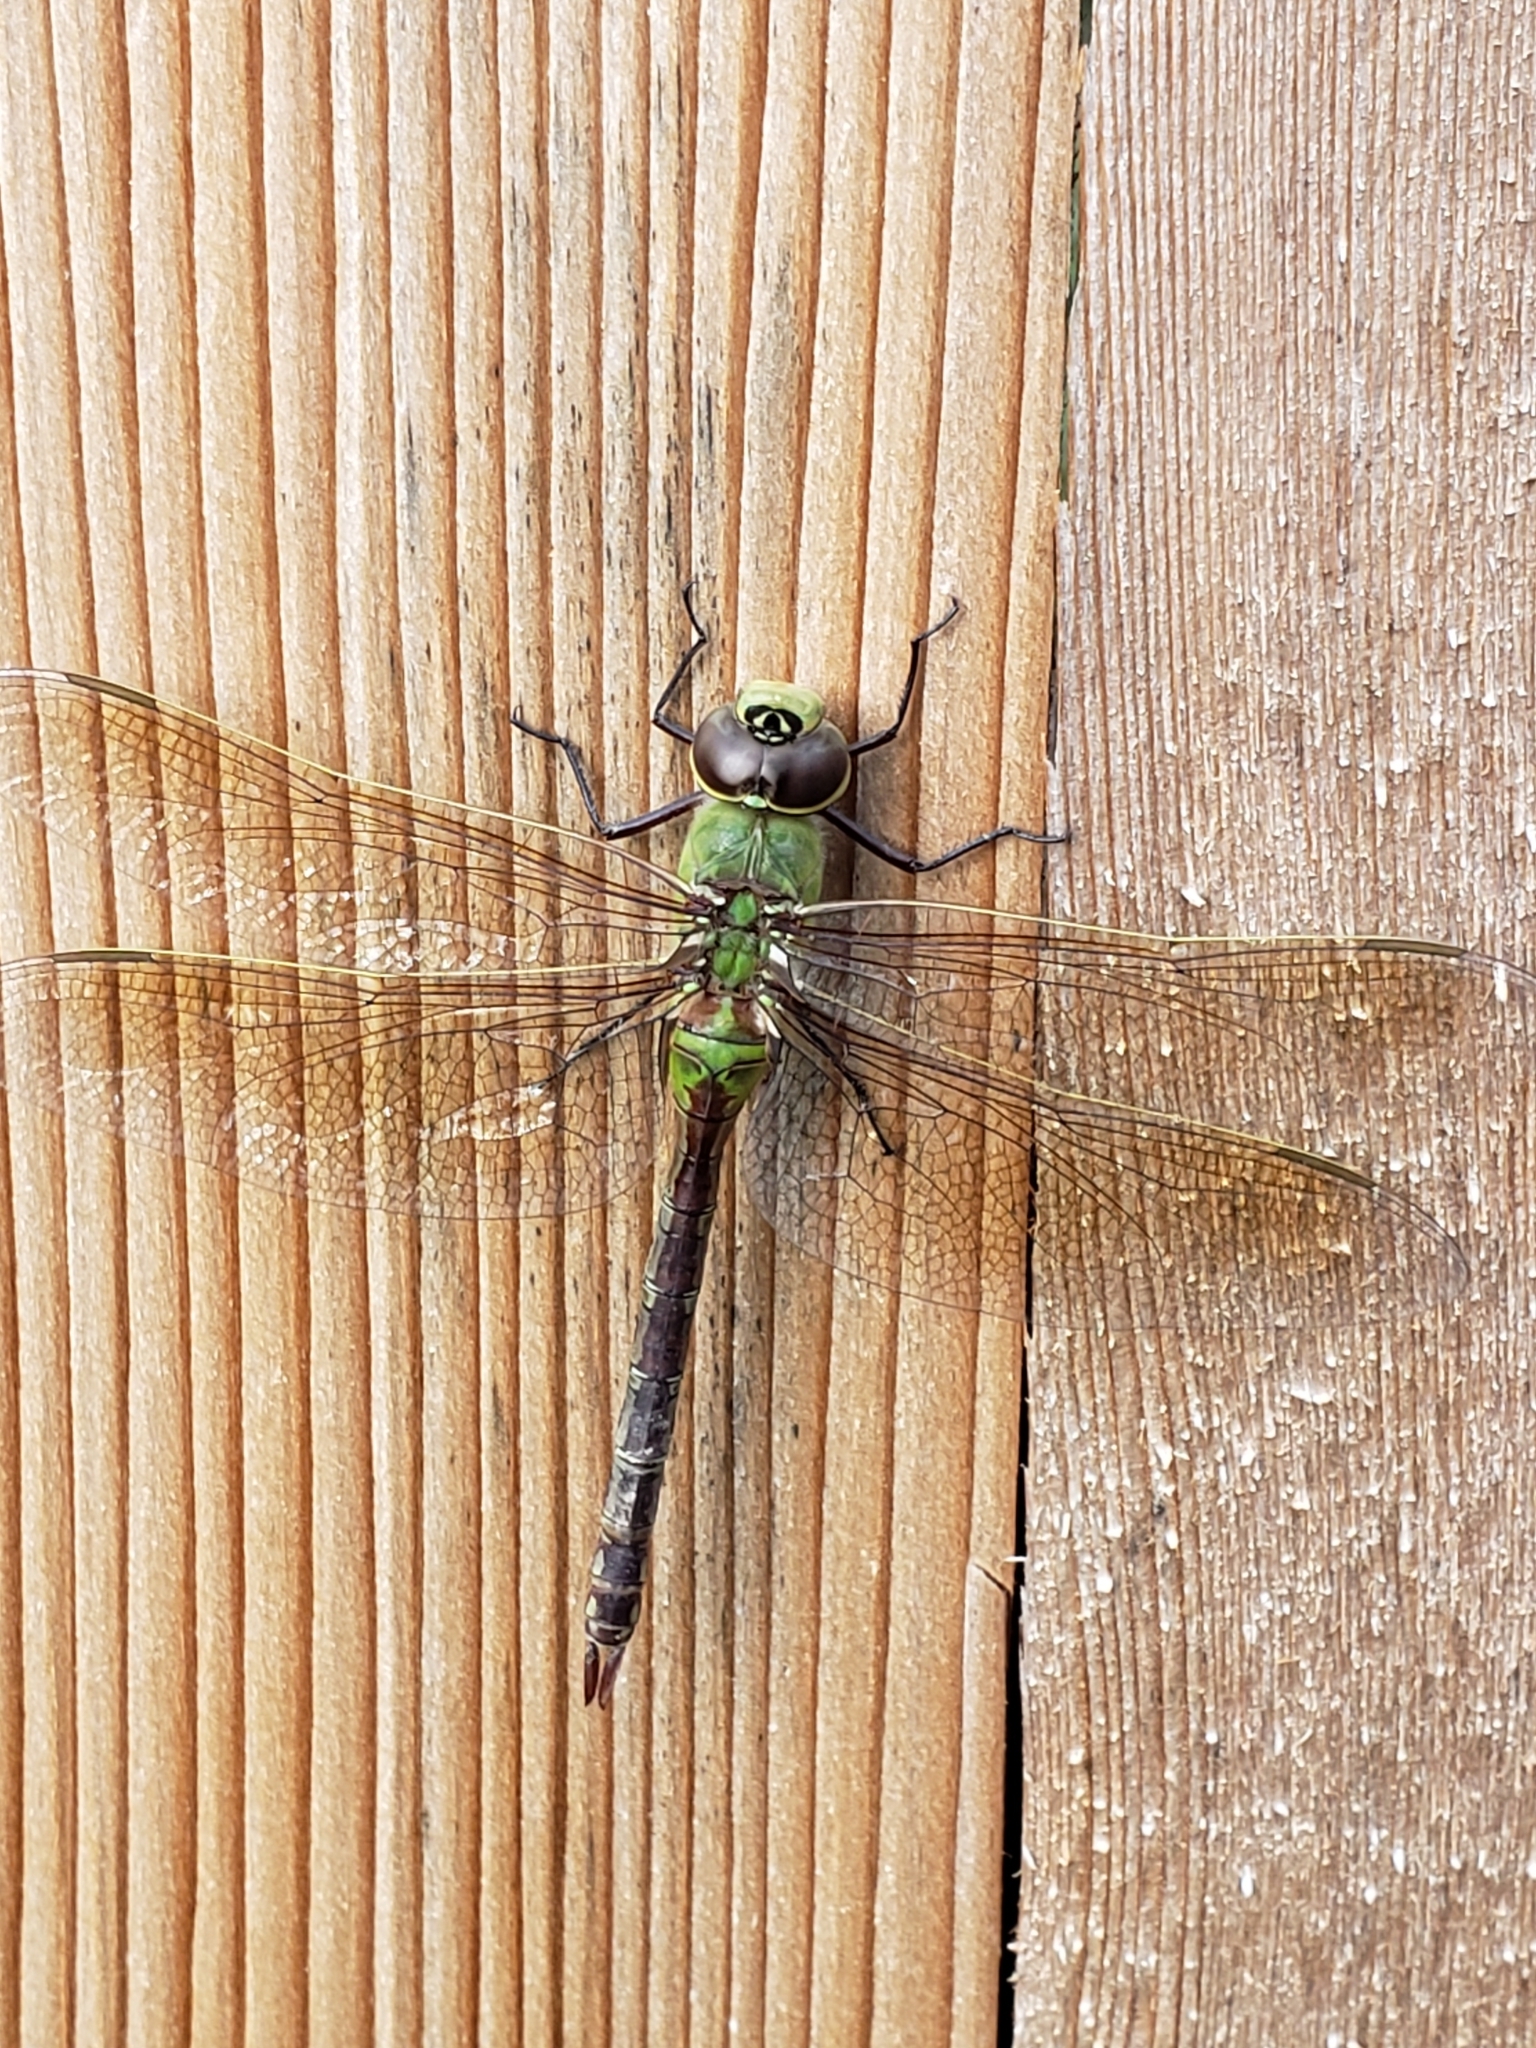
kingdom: Animalia
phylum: Arthropoda
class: Insecta
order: Odonata
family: Aeshnidae
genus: Anax
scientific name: Anax junius
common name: Common green darner
